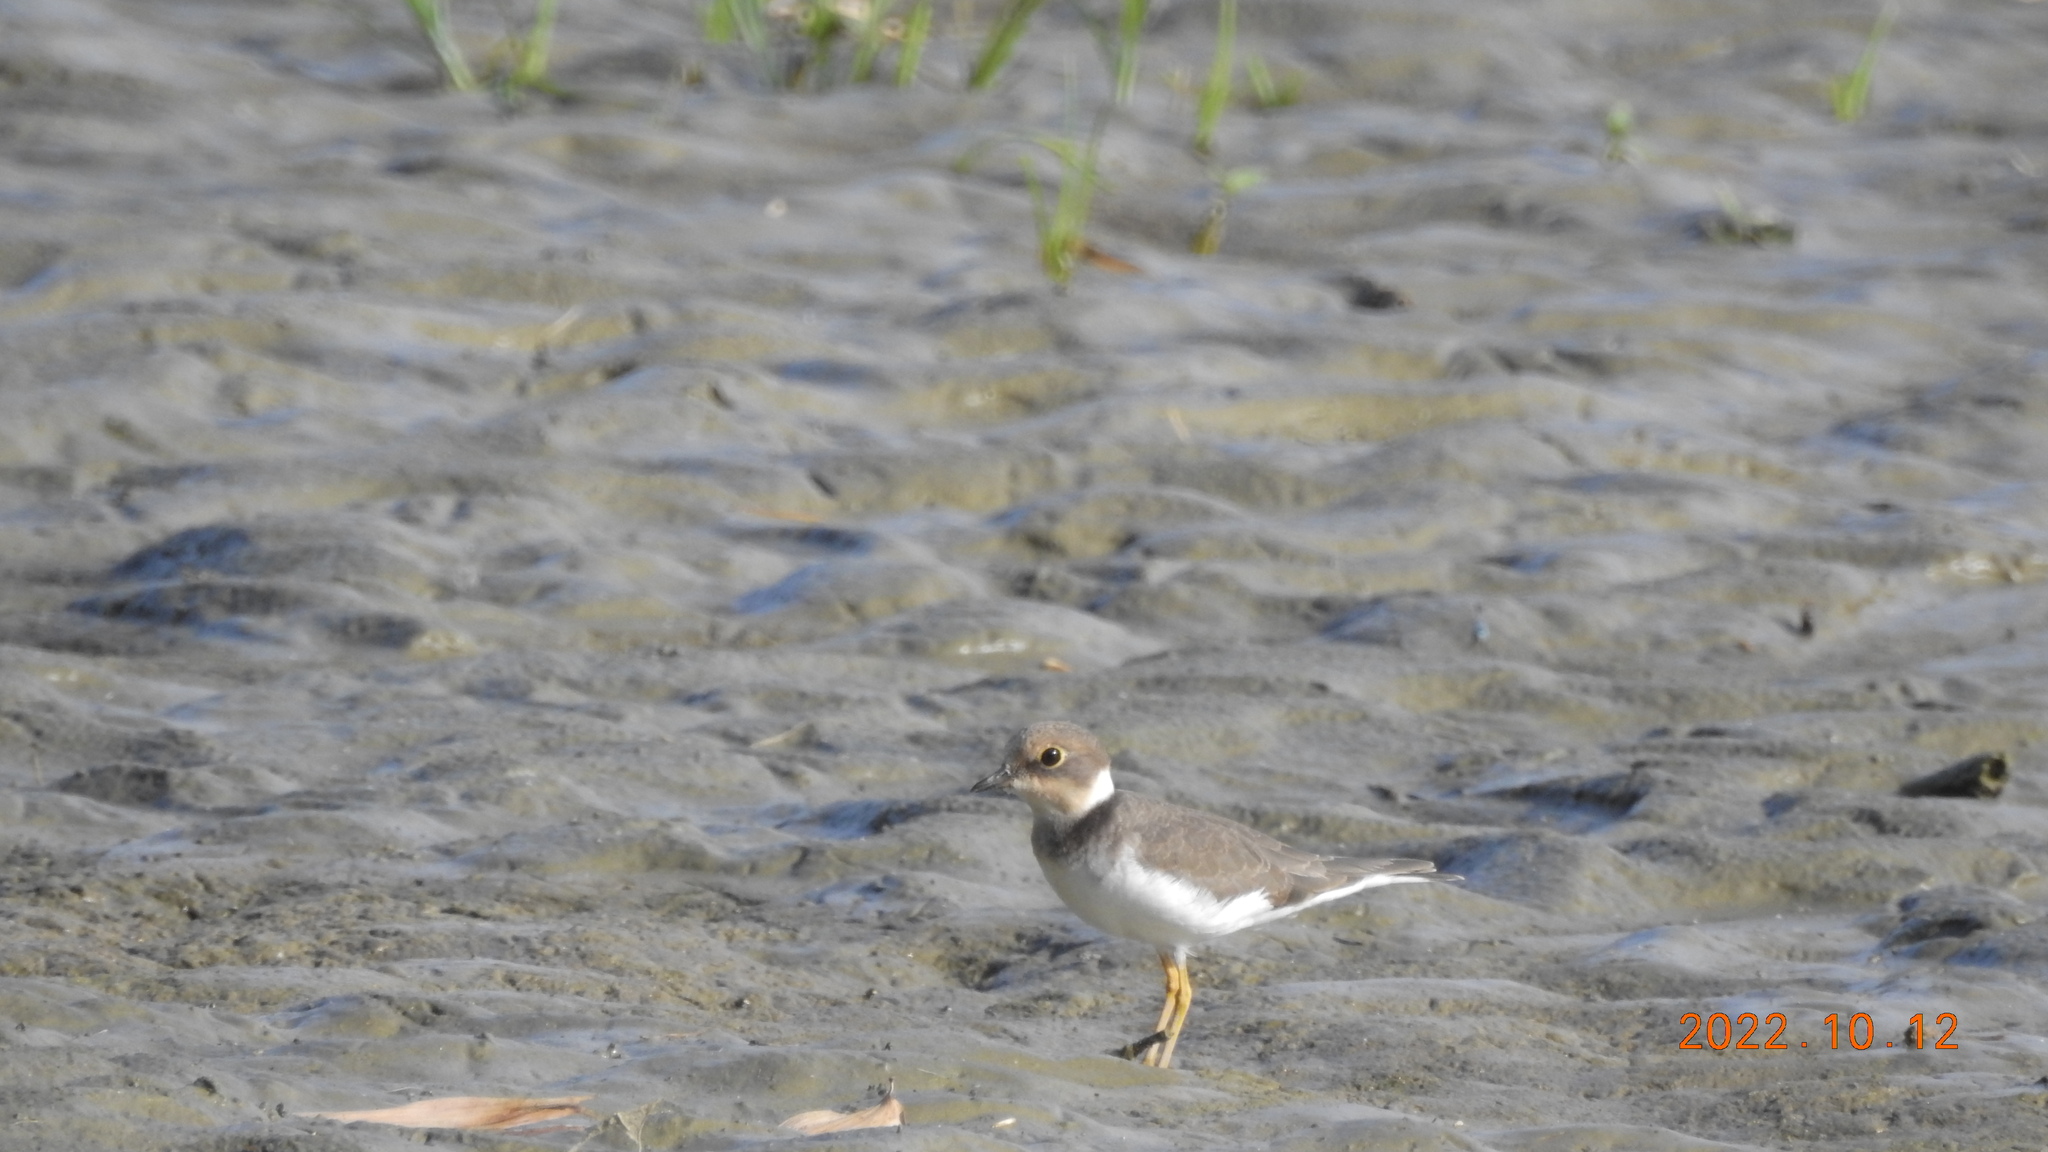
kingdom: Animalia
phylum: Chordata
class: Aves
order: Charadriiformes
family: Charadriidae
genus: Charadrius
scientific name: Charadrius dubius
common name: Little ringed plover
